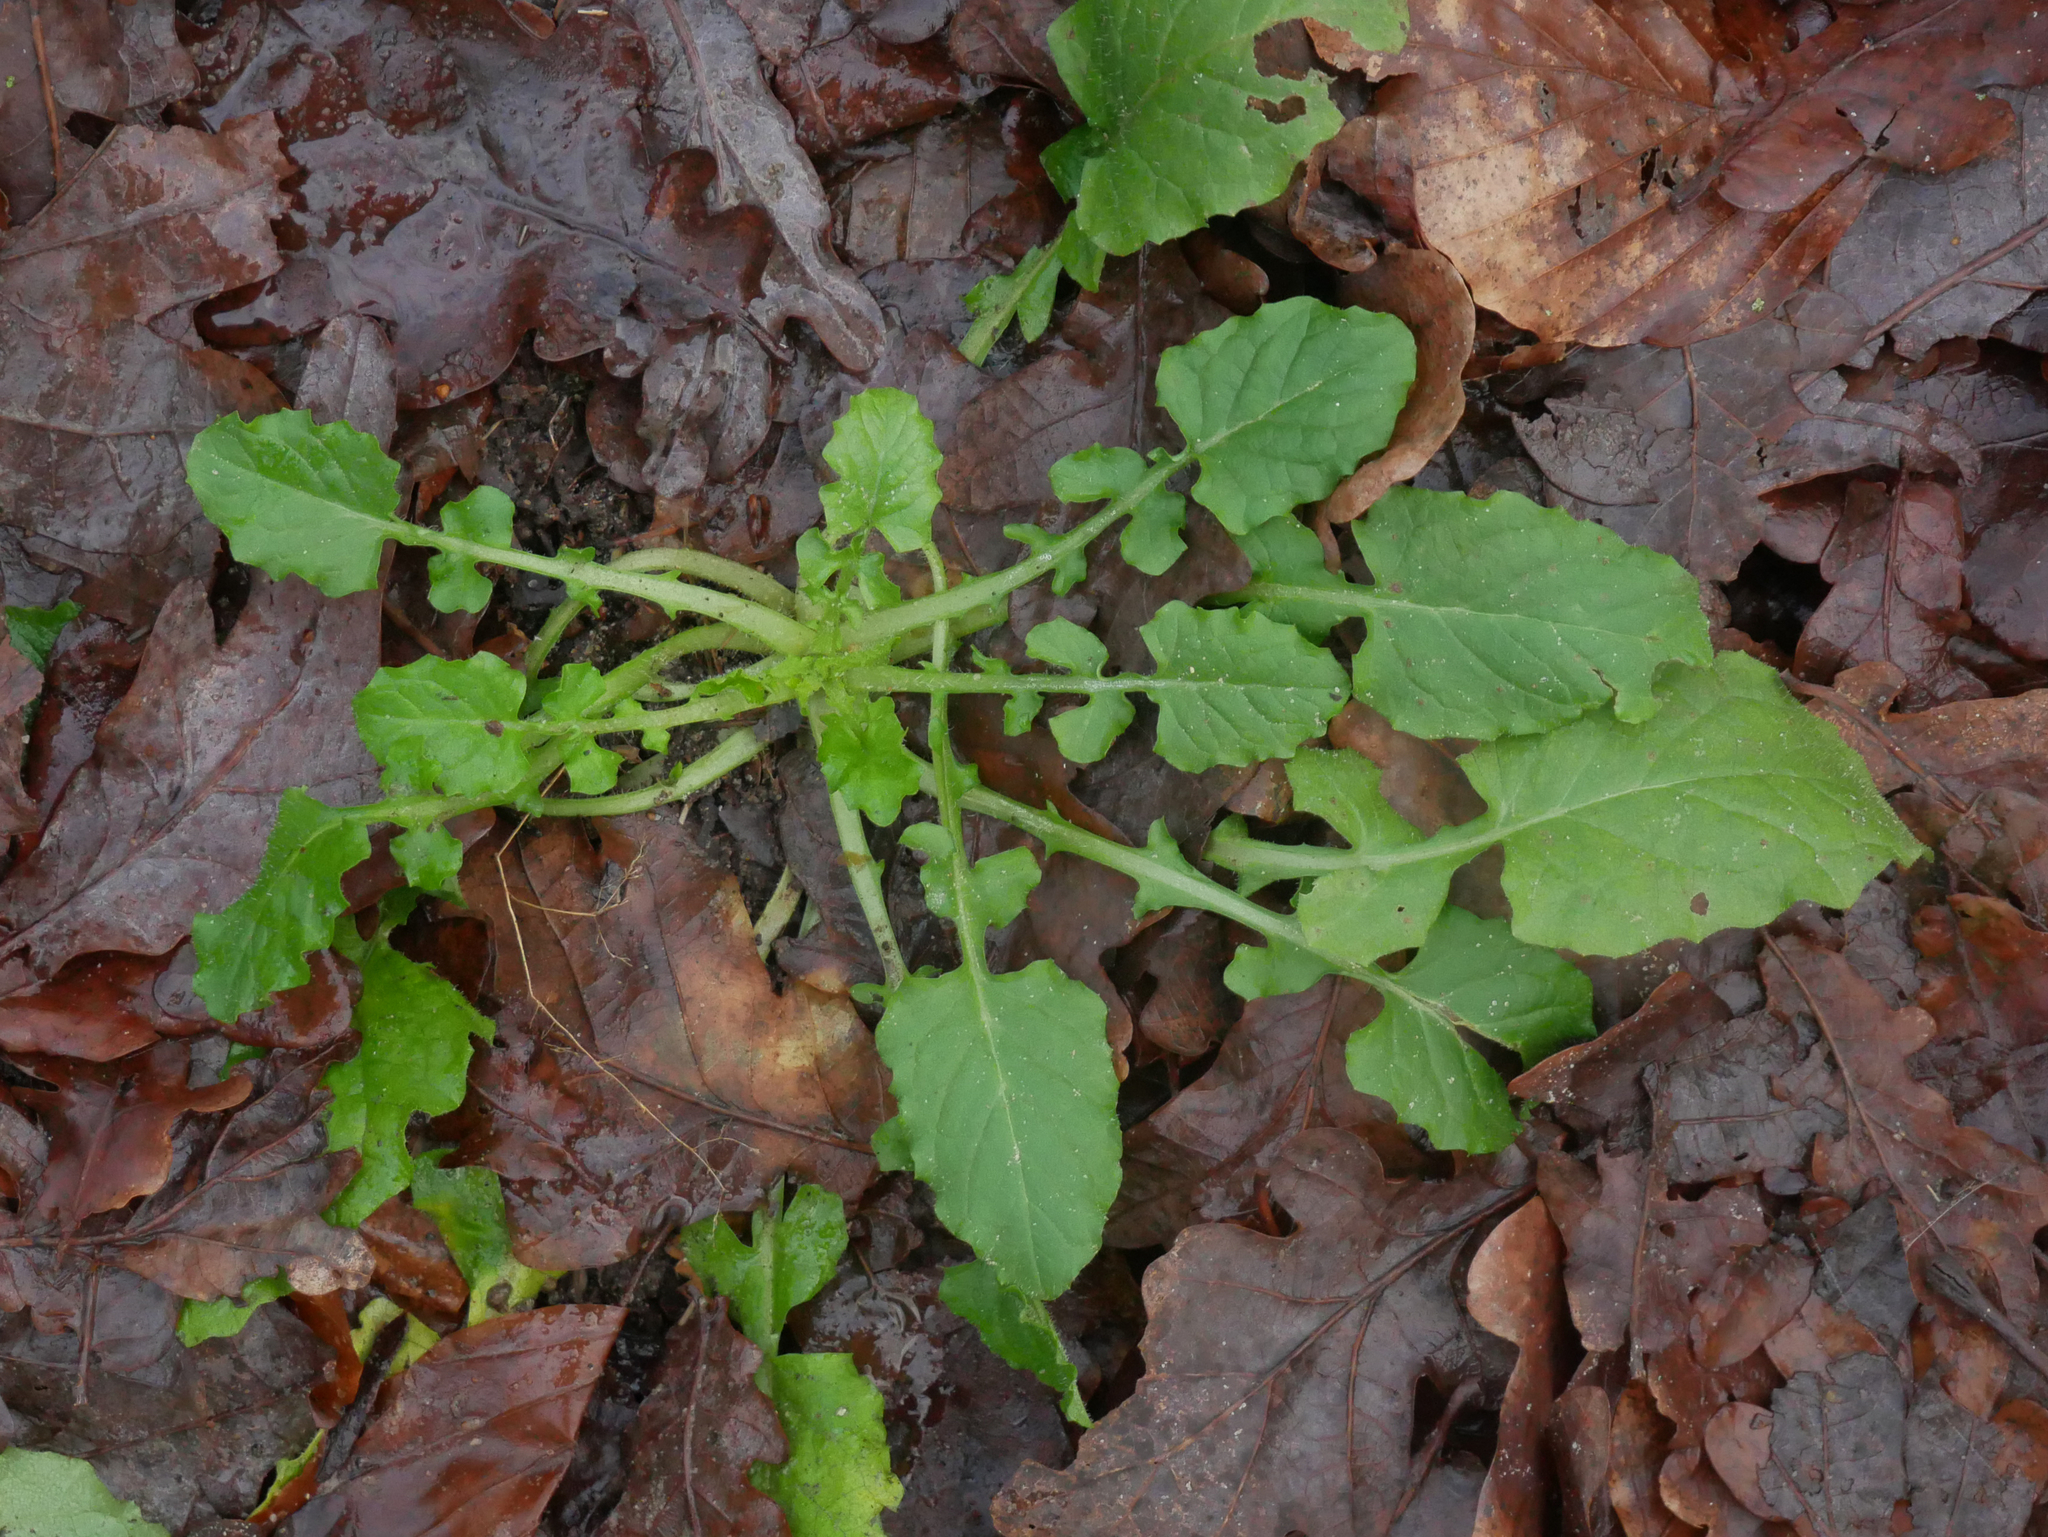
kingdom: Plantae
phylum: Tracheophyta
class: Magnoliopsida
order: Asterales
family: Asteraceae
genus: Lapsana
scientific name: Lapsana communis
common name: Nipplewort
